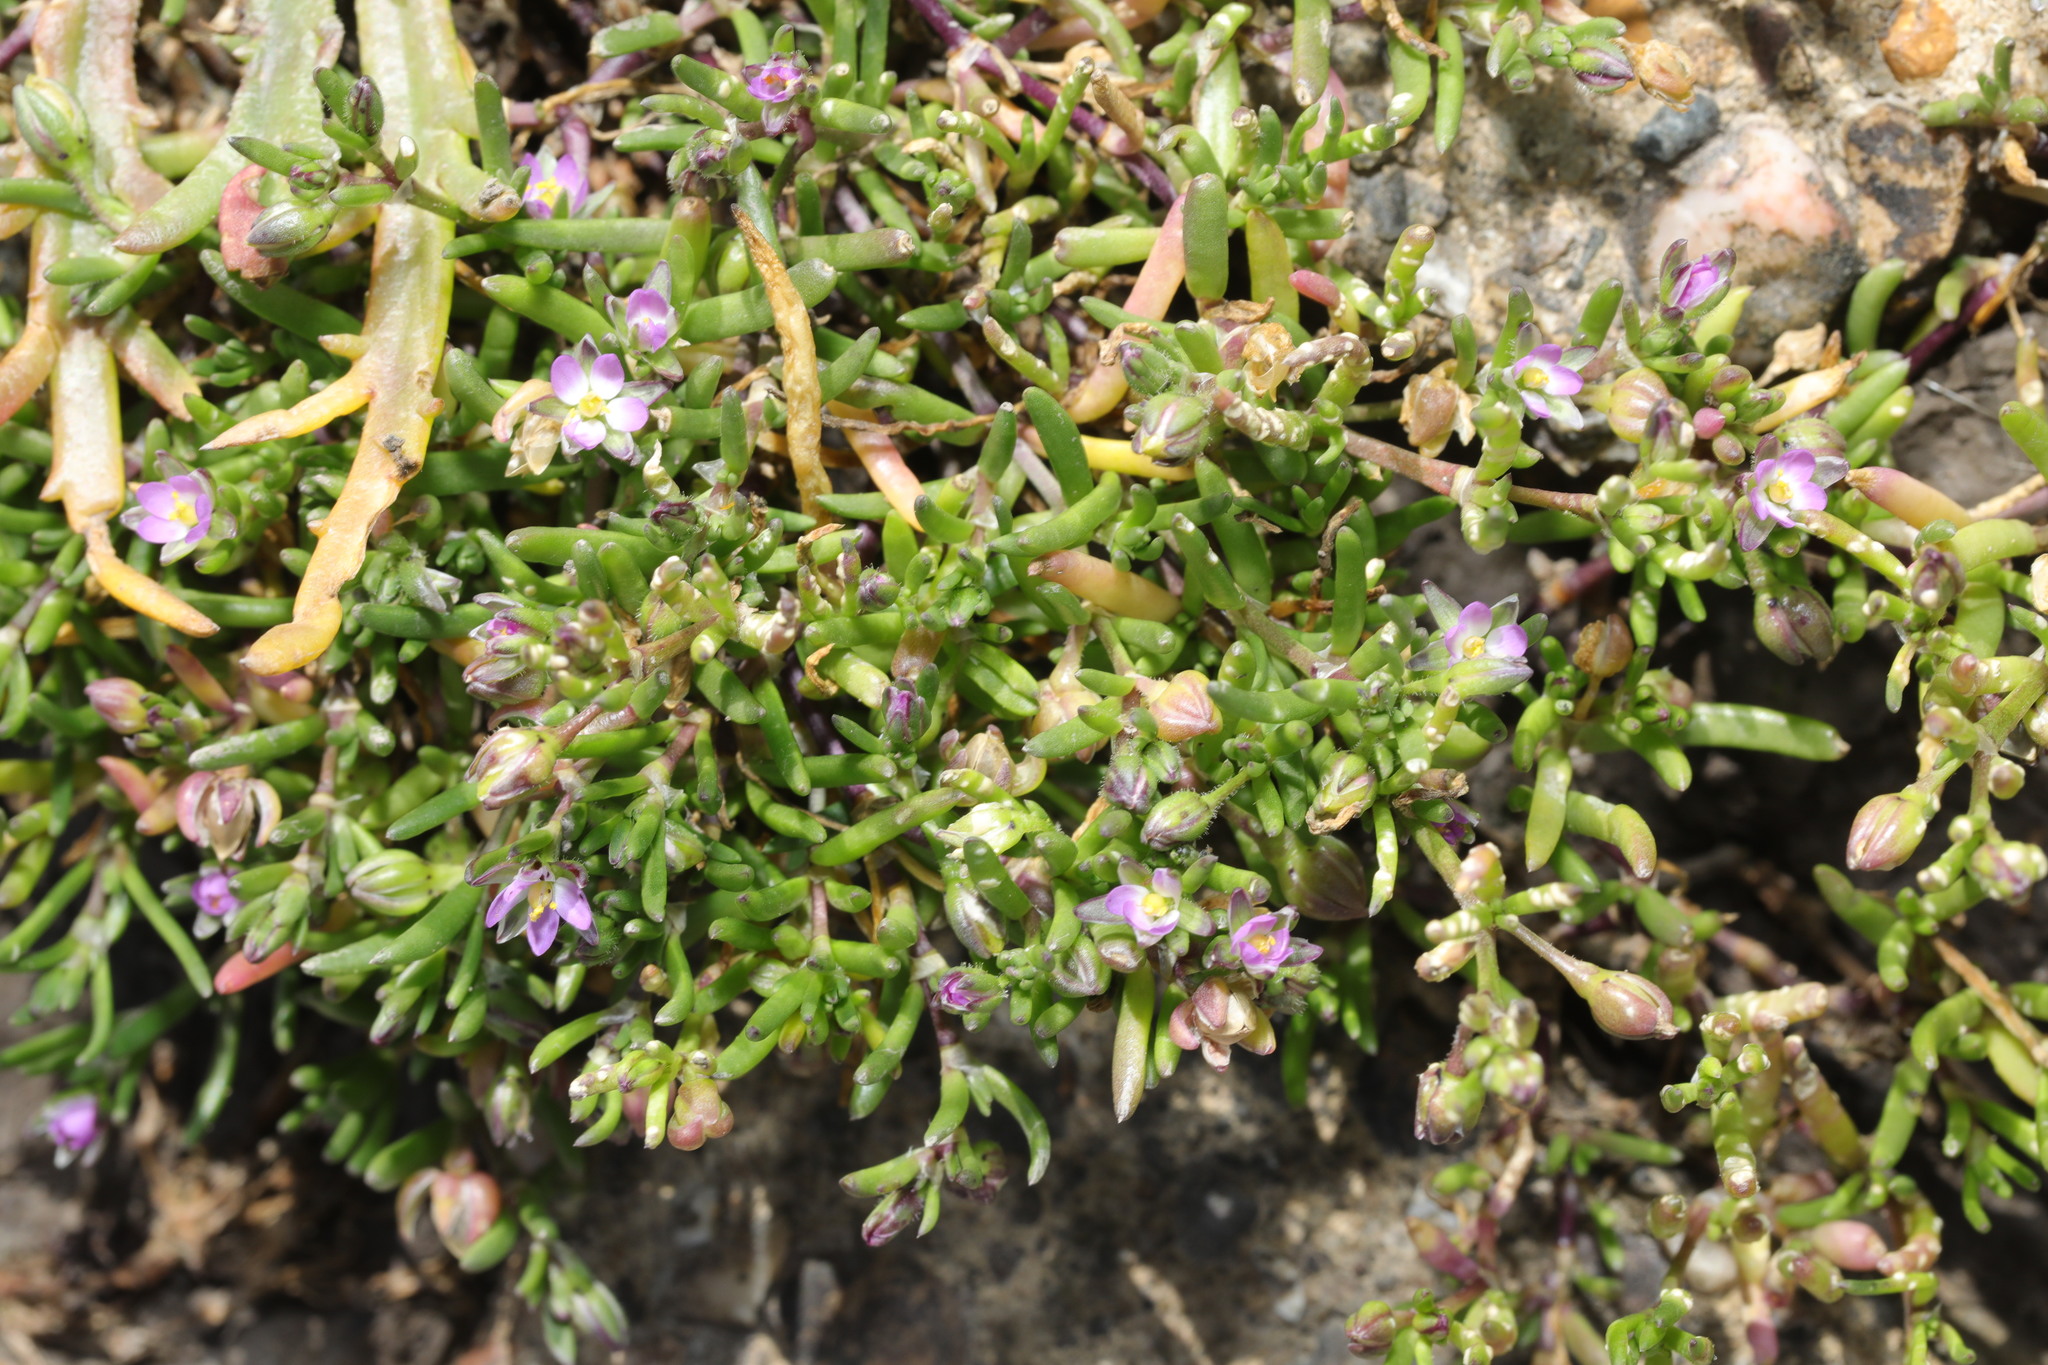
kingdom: Plantae
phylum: Tracheophyta
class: Magnoliopsida
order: Caryophyllales
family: Caryophyllaceae
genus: Spergularia
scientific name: Spergularia marina
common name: Lesser sea-spurrey
